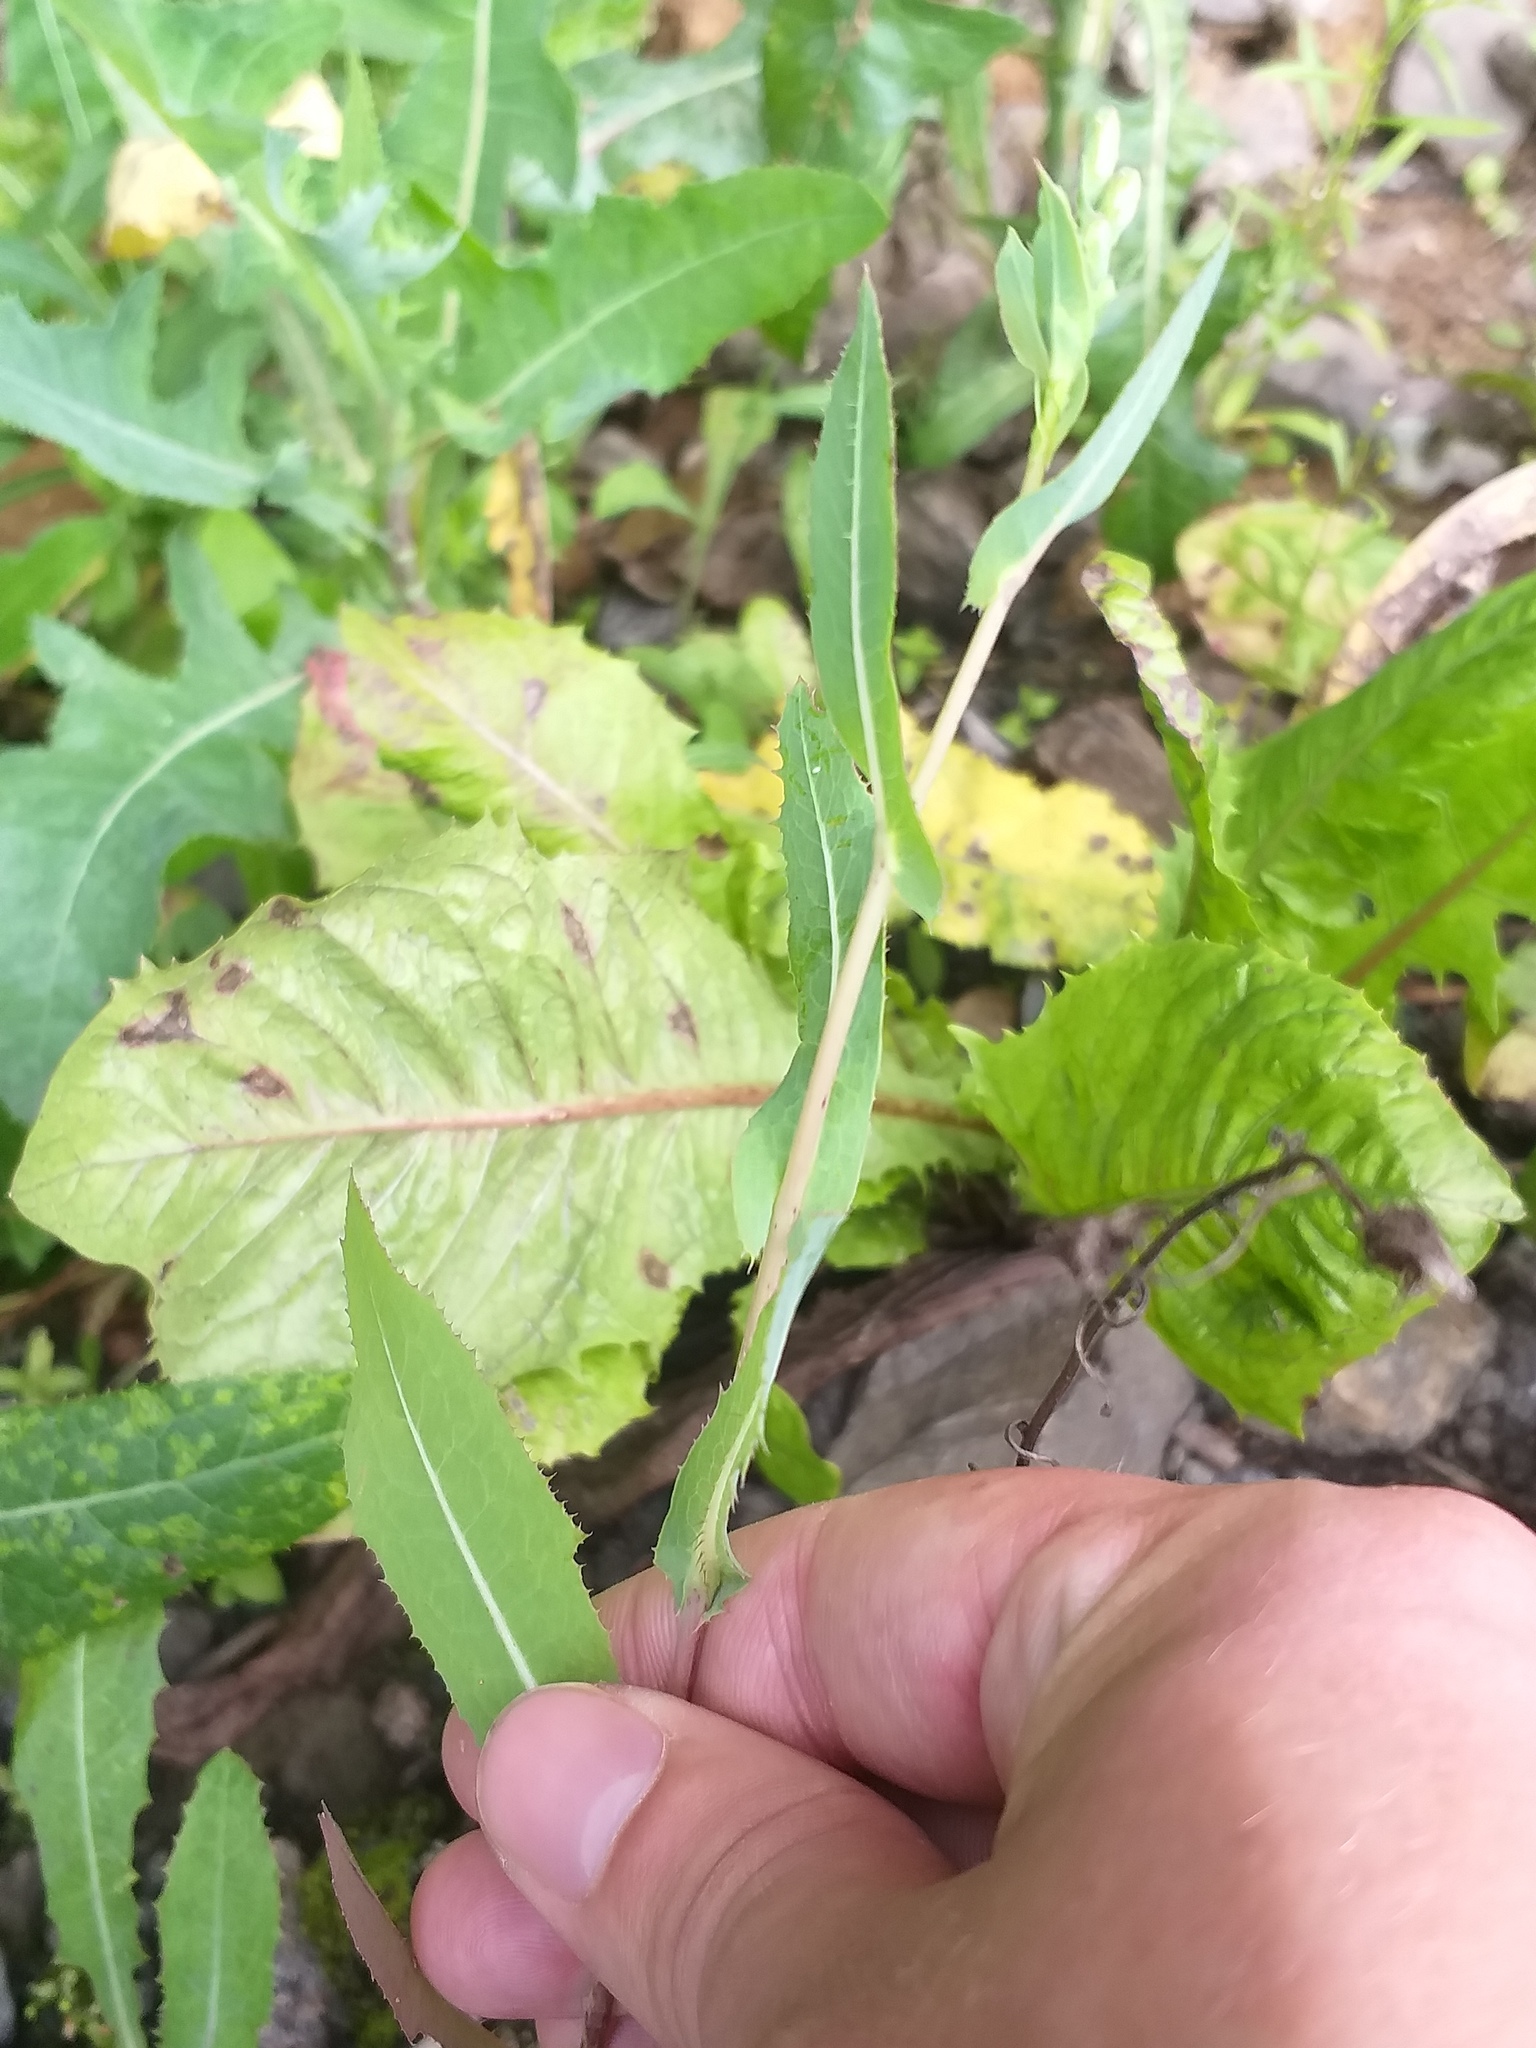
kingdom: Plantae
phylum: Tracheophyta
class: Magnoliopsida
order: Asterales
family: Asteraceae
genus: Lactuca
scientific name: Lactuca serriola
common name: Prickly lettuce
